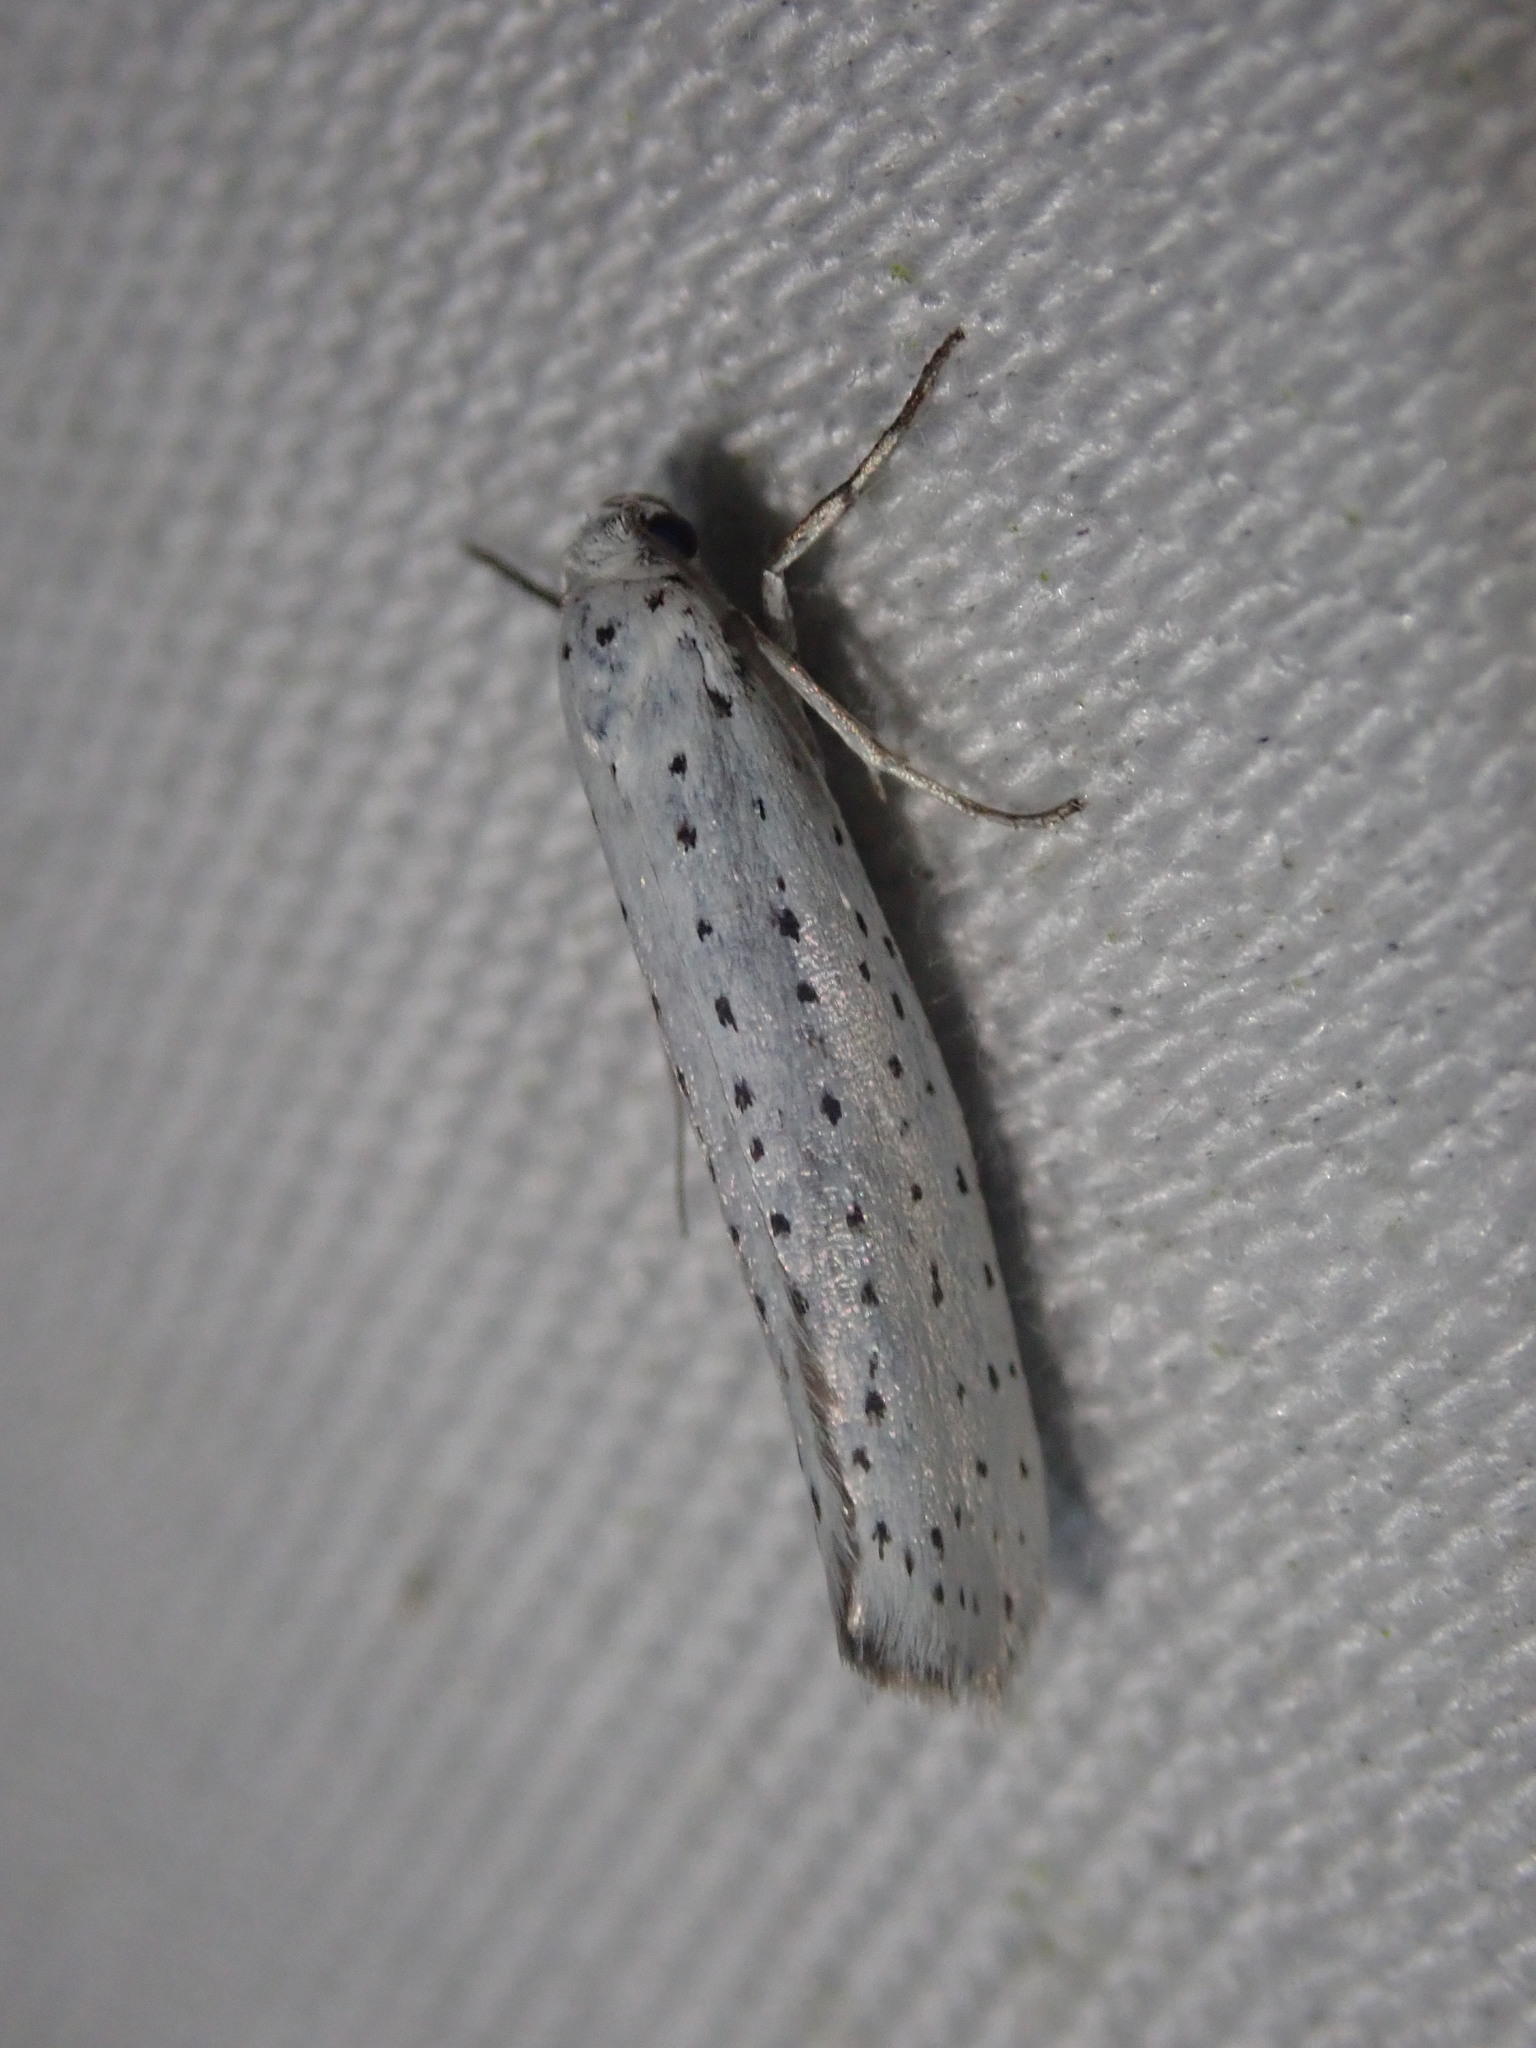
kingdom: Animalia
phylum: Arthropoda
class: Insecta
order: Lepidoptera
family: Yponomeutidae
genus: Yponomeuta
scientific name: Yponomeuta evonymella
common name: Bird-cherry ermine
